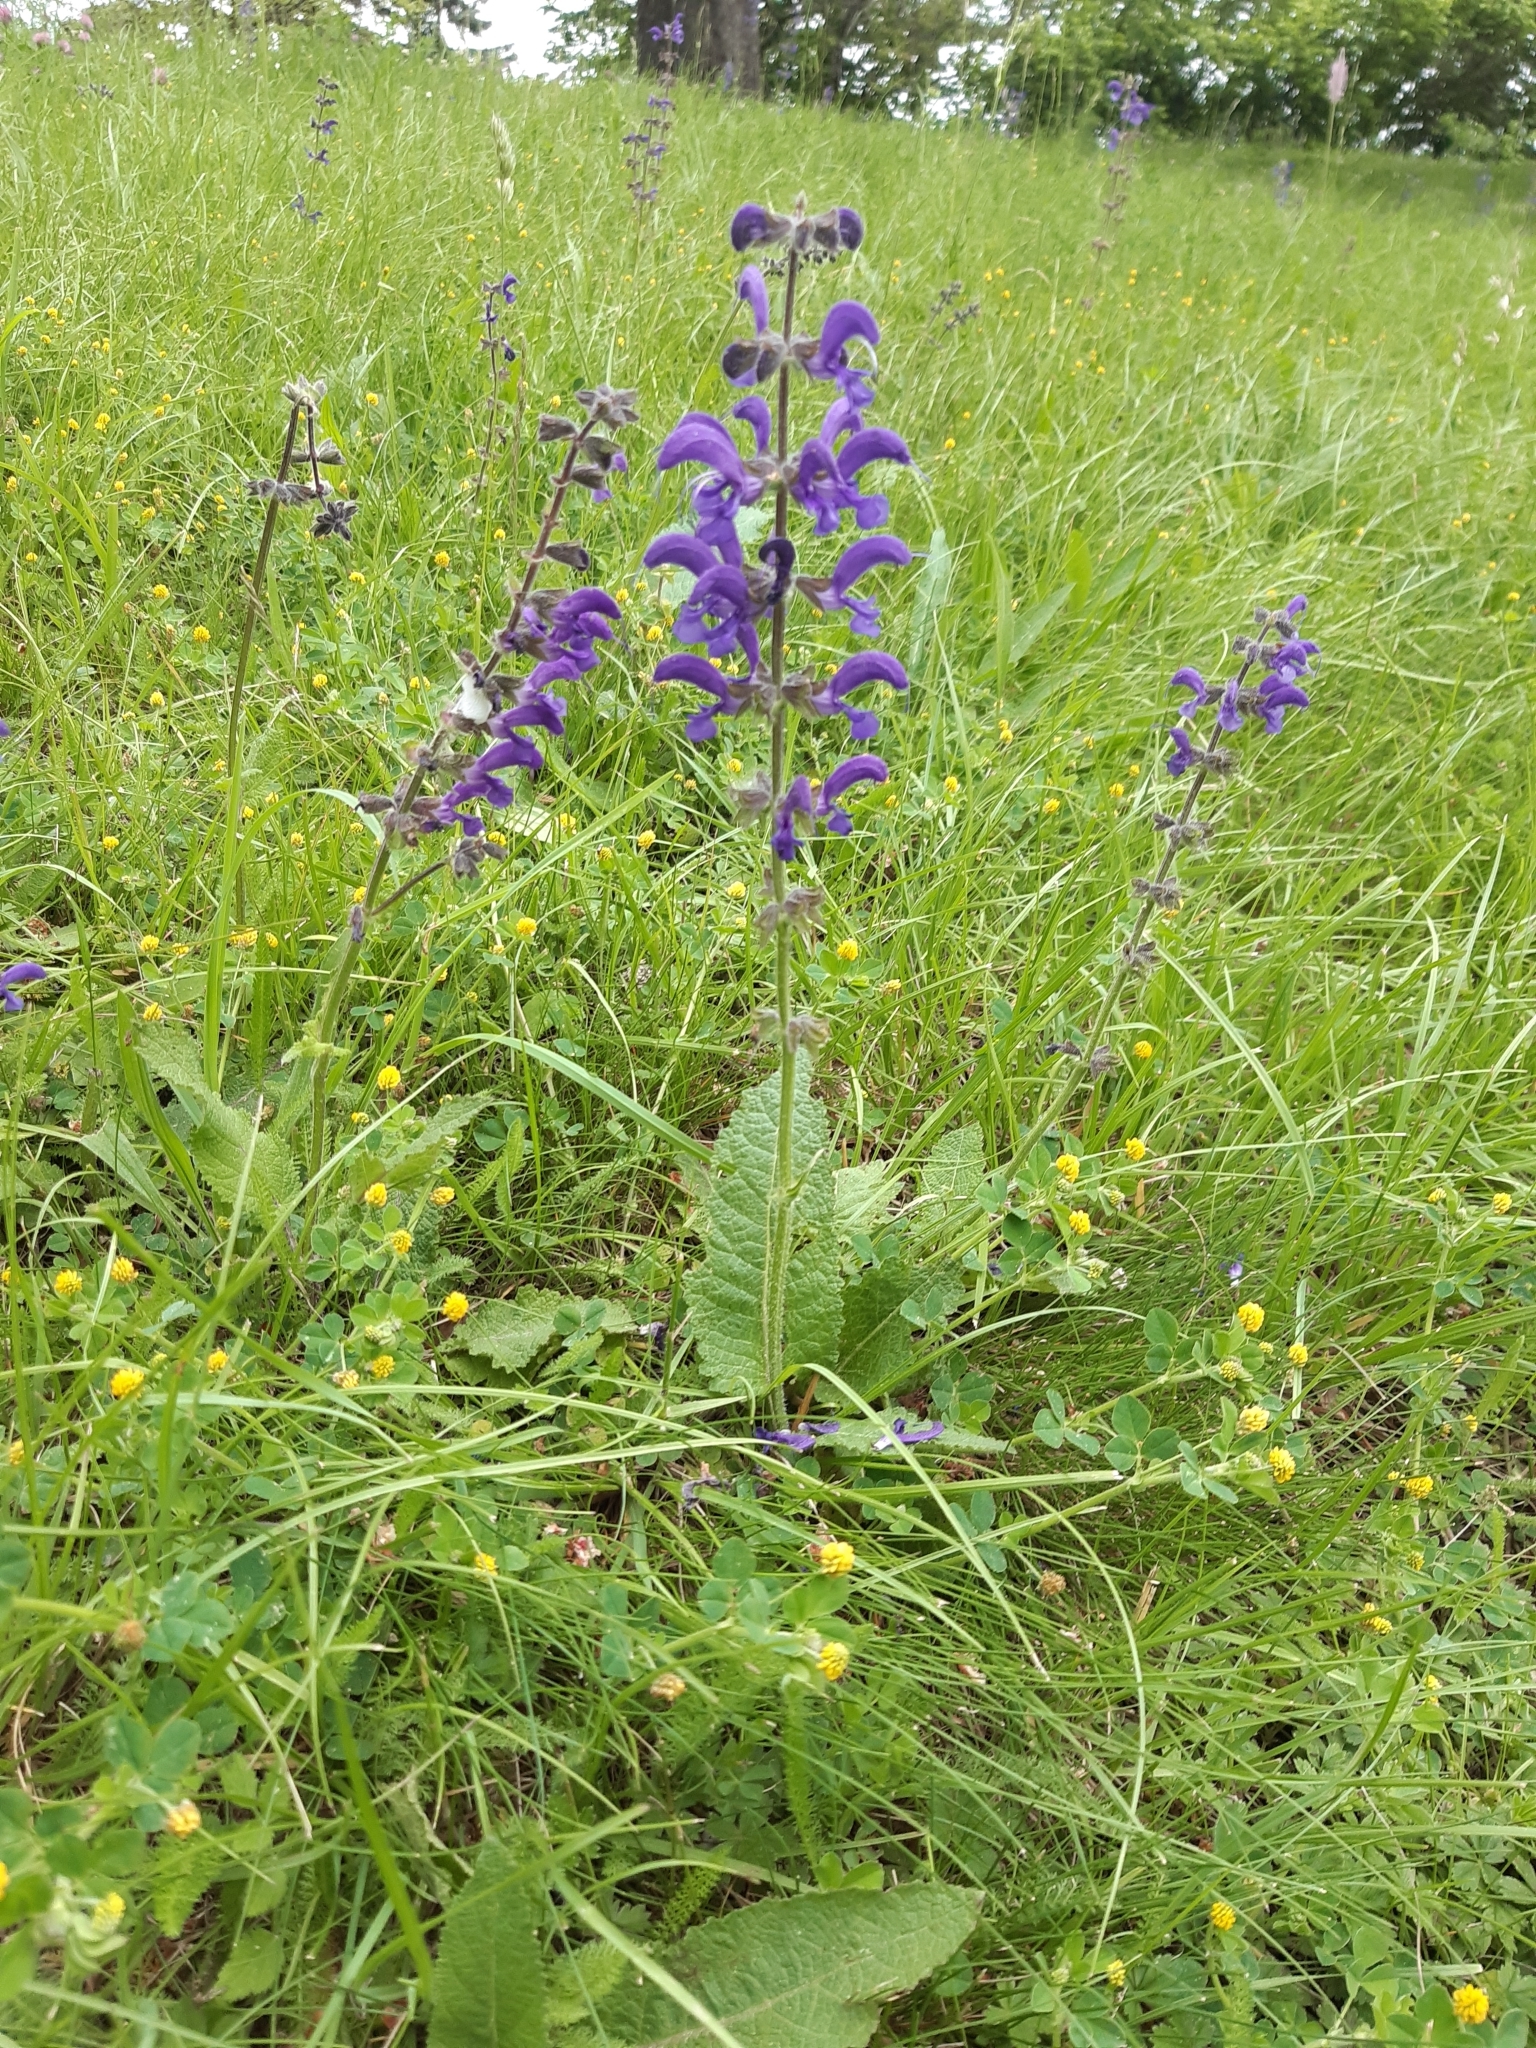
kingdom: Plantae
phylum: Tracheophyta
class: Magnoliopsida
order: Lamiales
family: Lamiaceae
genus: Salvia
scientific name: Salvia pratensis
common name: Meadow sage
